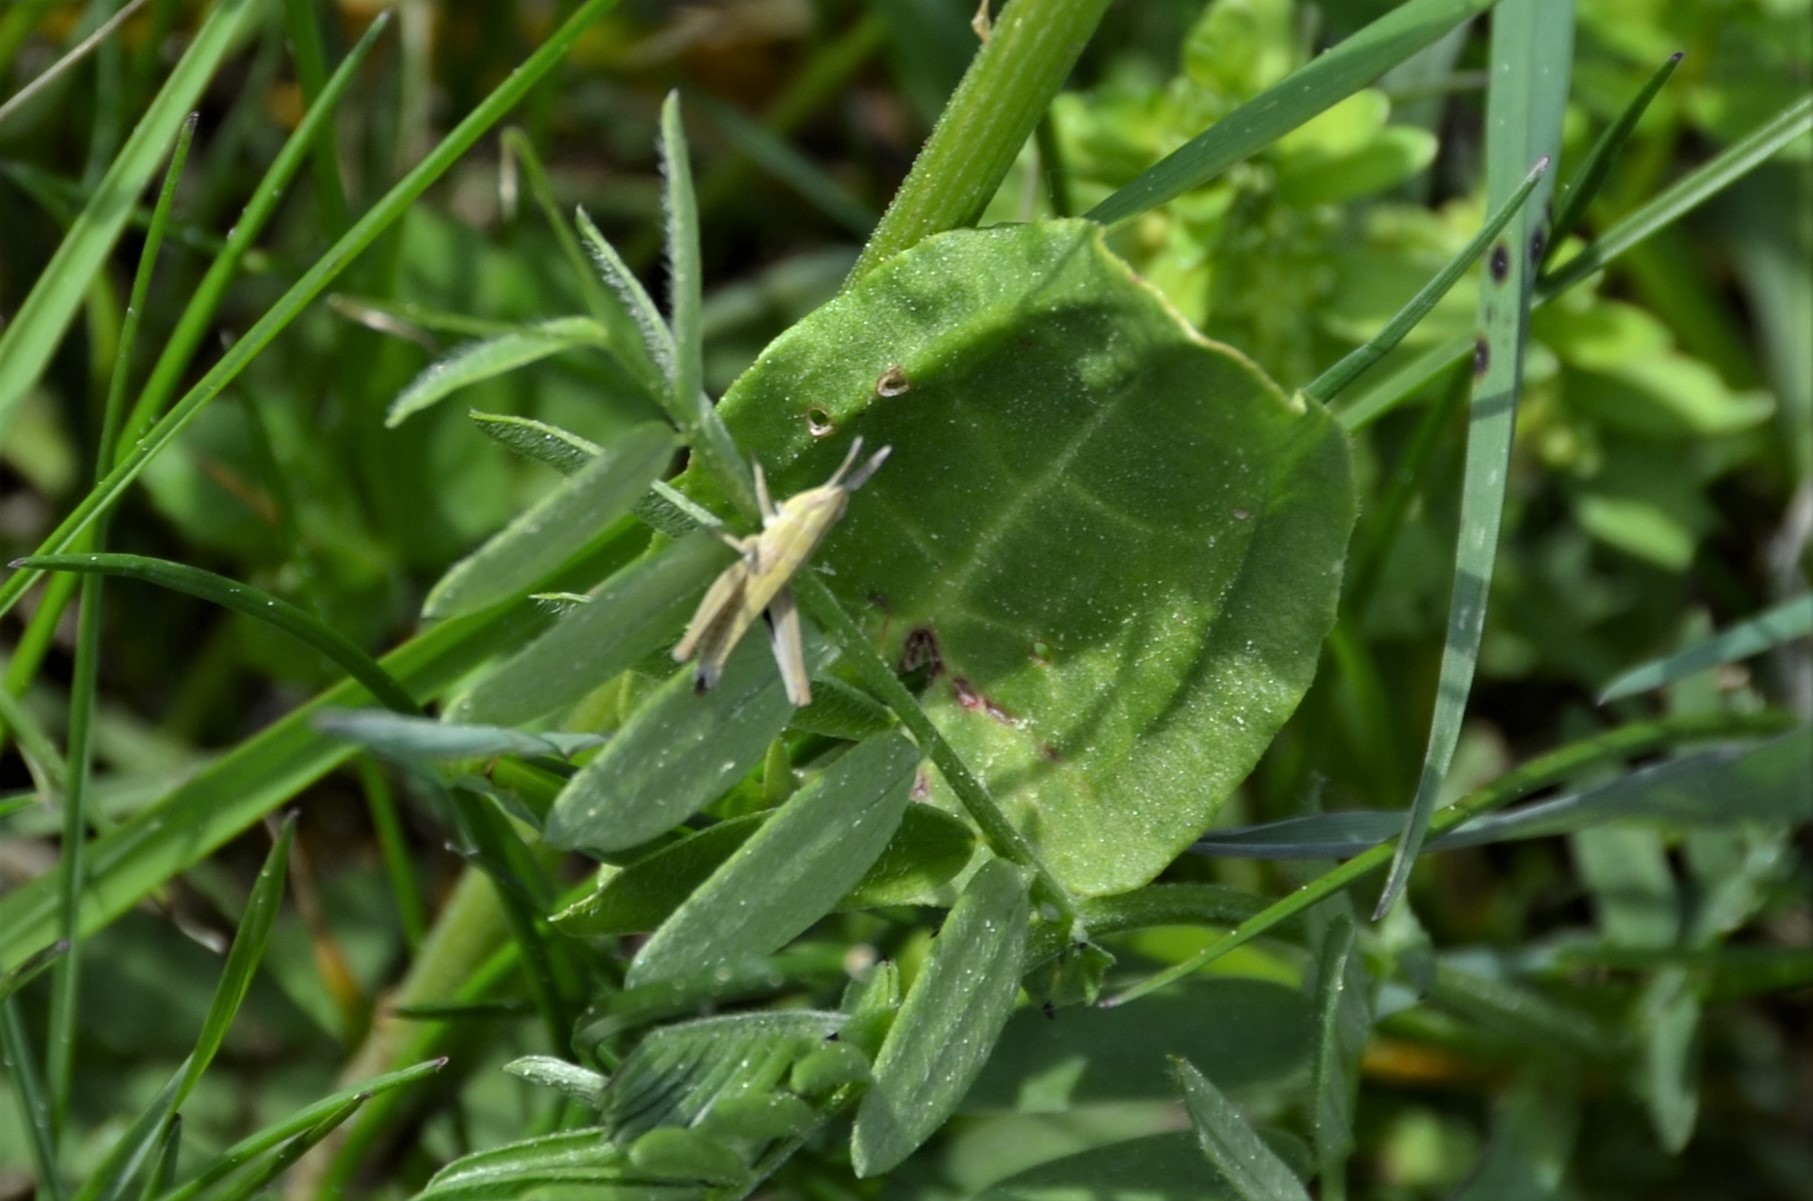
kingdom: Animalia
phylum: Arthropoda
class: Insecta
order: Orthoptera
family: Acrididae
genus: Euthystira
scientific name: Euthystira brachyptera
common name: Small gold grasshopper
